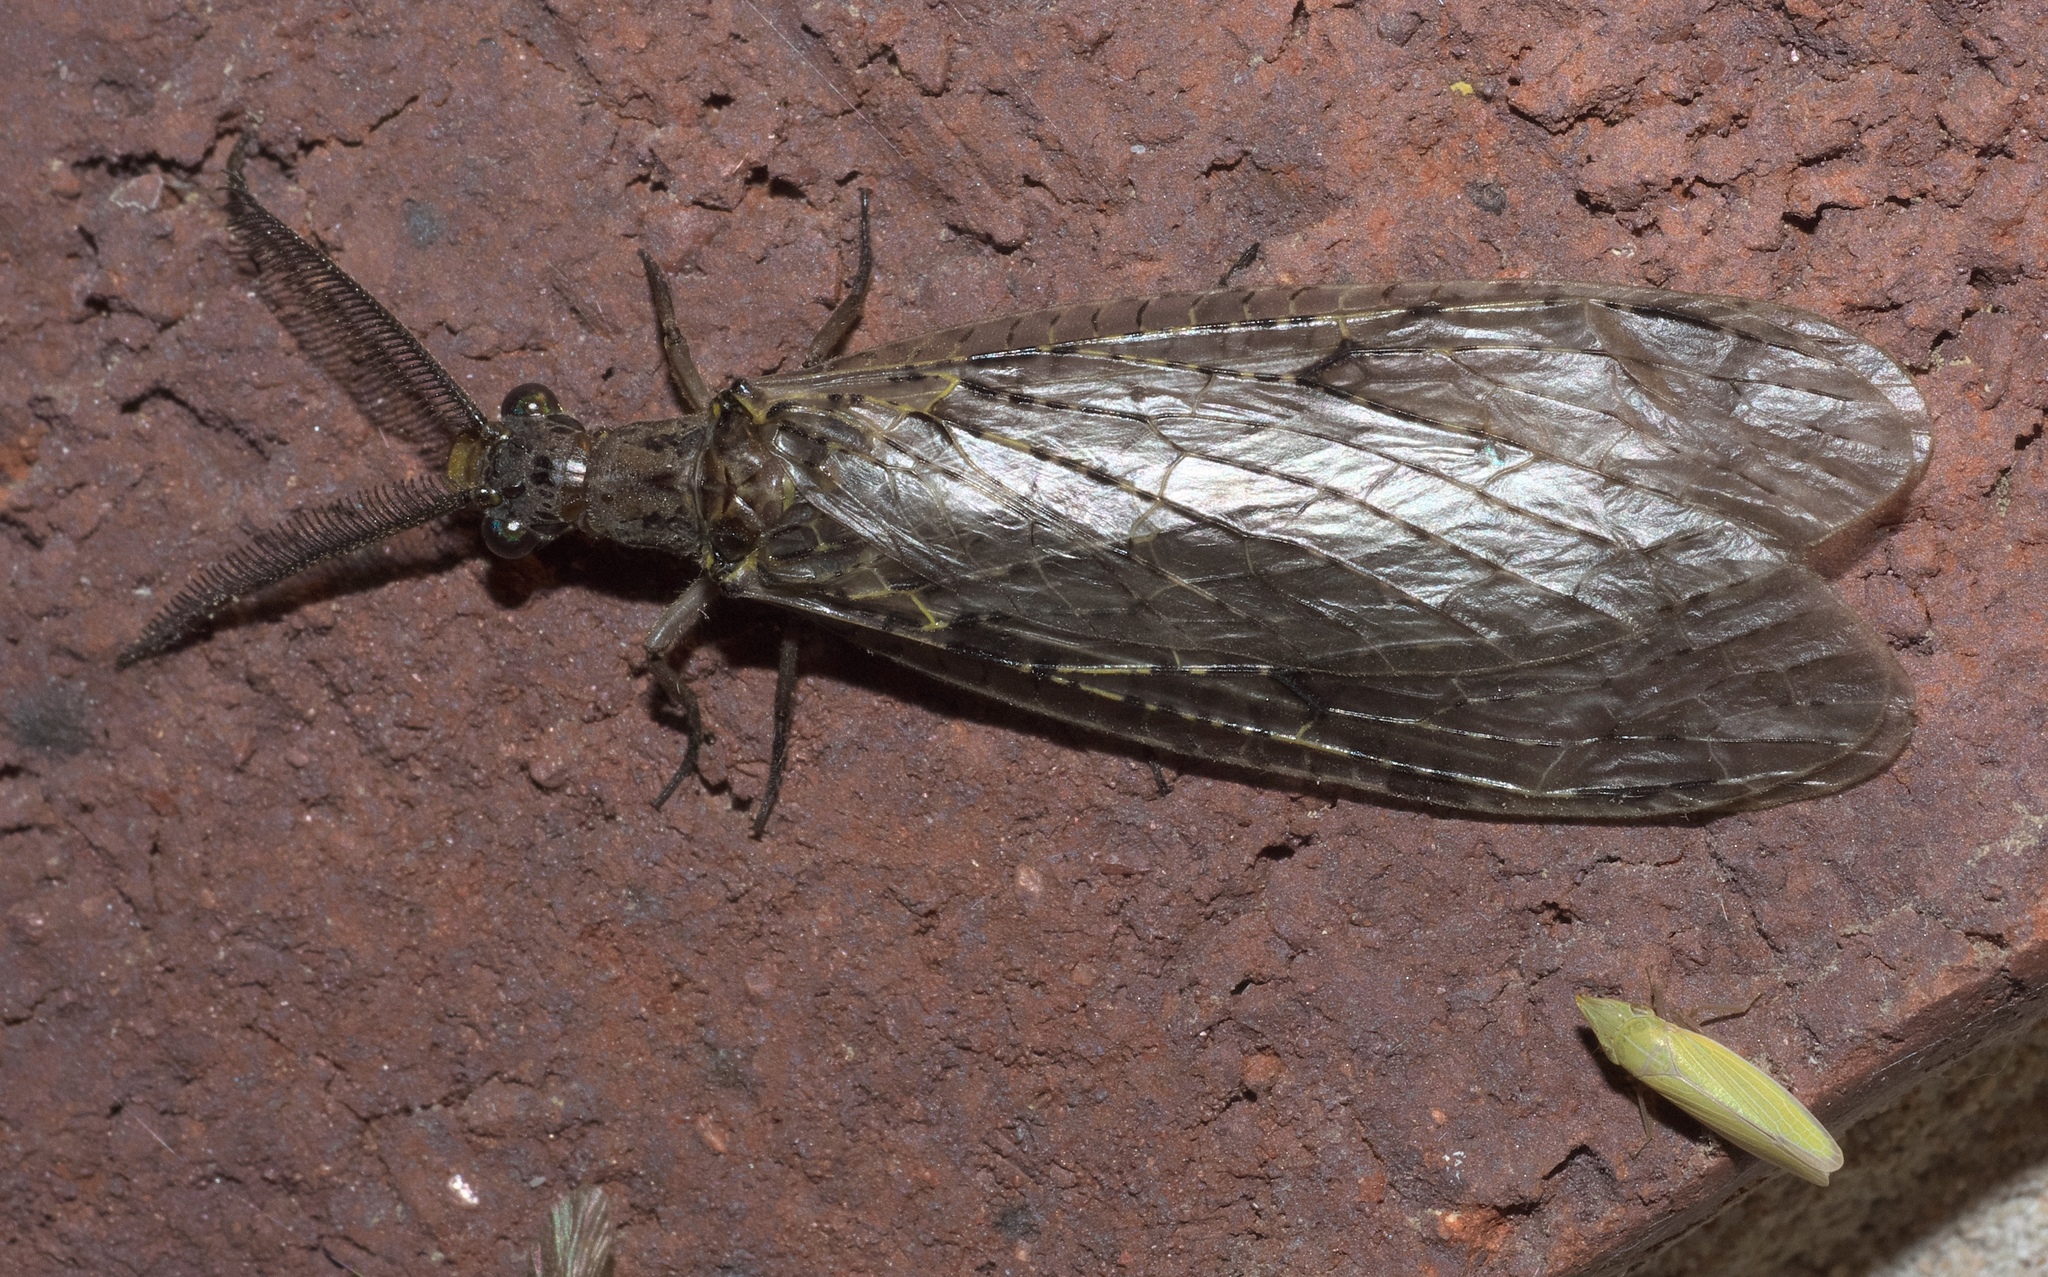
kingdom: Animalia
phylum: Arthropoda
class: Insecta
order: Megaloptera
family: Corydalidae
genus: Chauliodes
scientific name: Chauliodes rastricornis
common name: Spring fishfly
